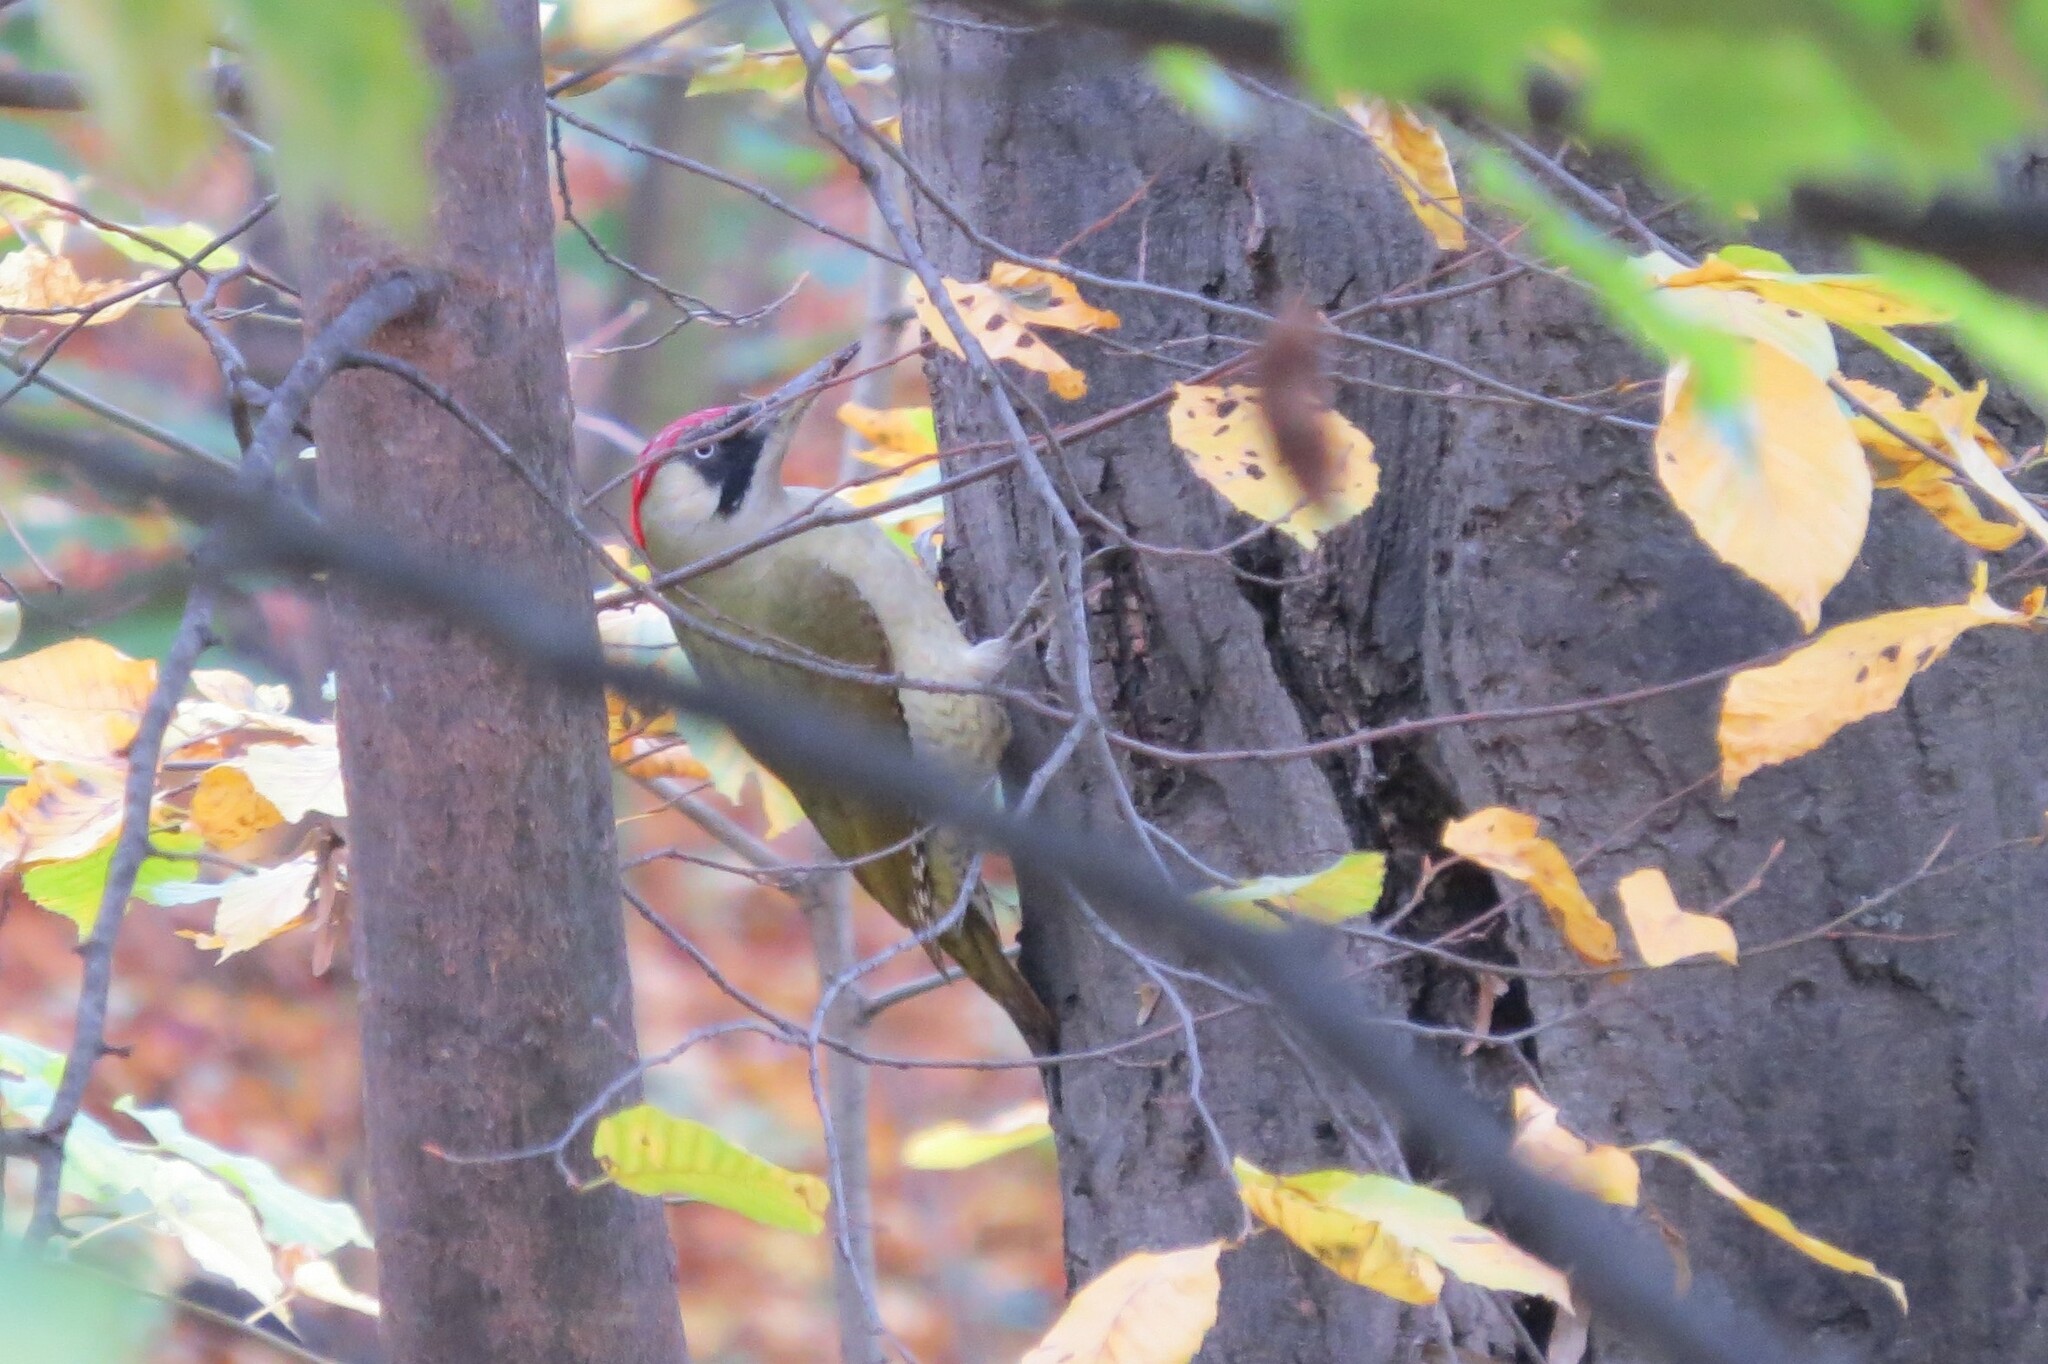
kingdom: Animalia
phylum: Chordata
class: Aves
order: Piciformes
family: Picidae
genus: Picus
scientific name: Picus viridis
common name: European green woodpecker
